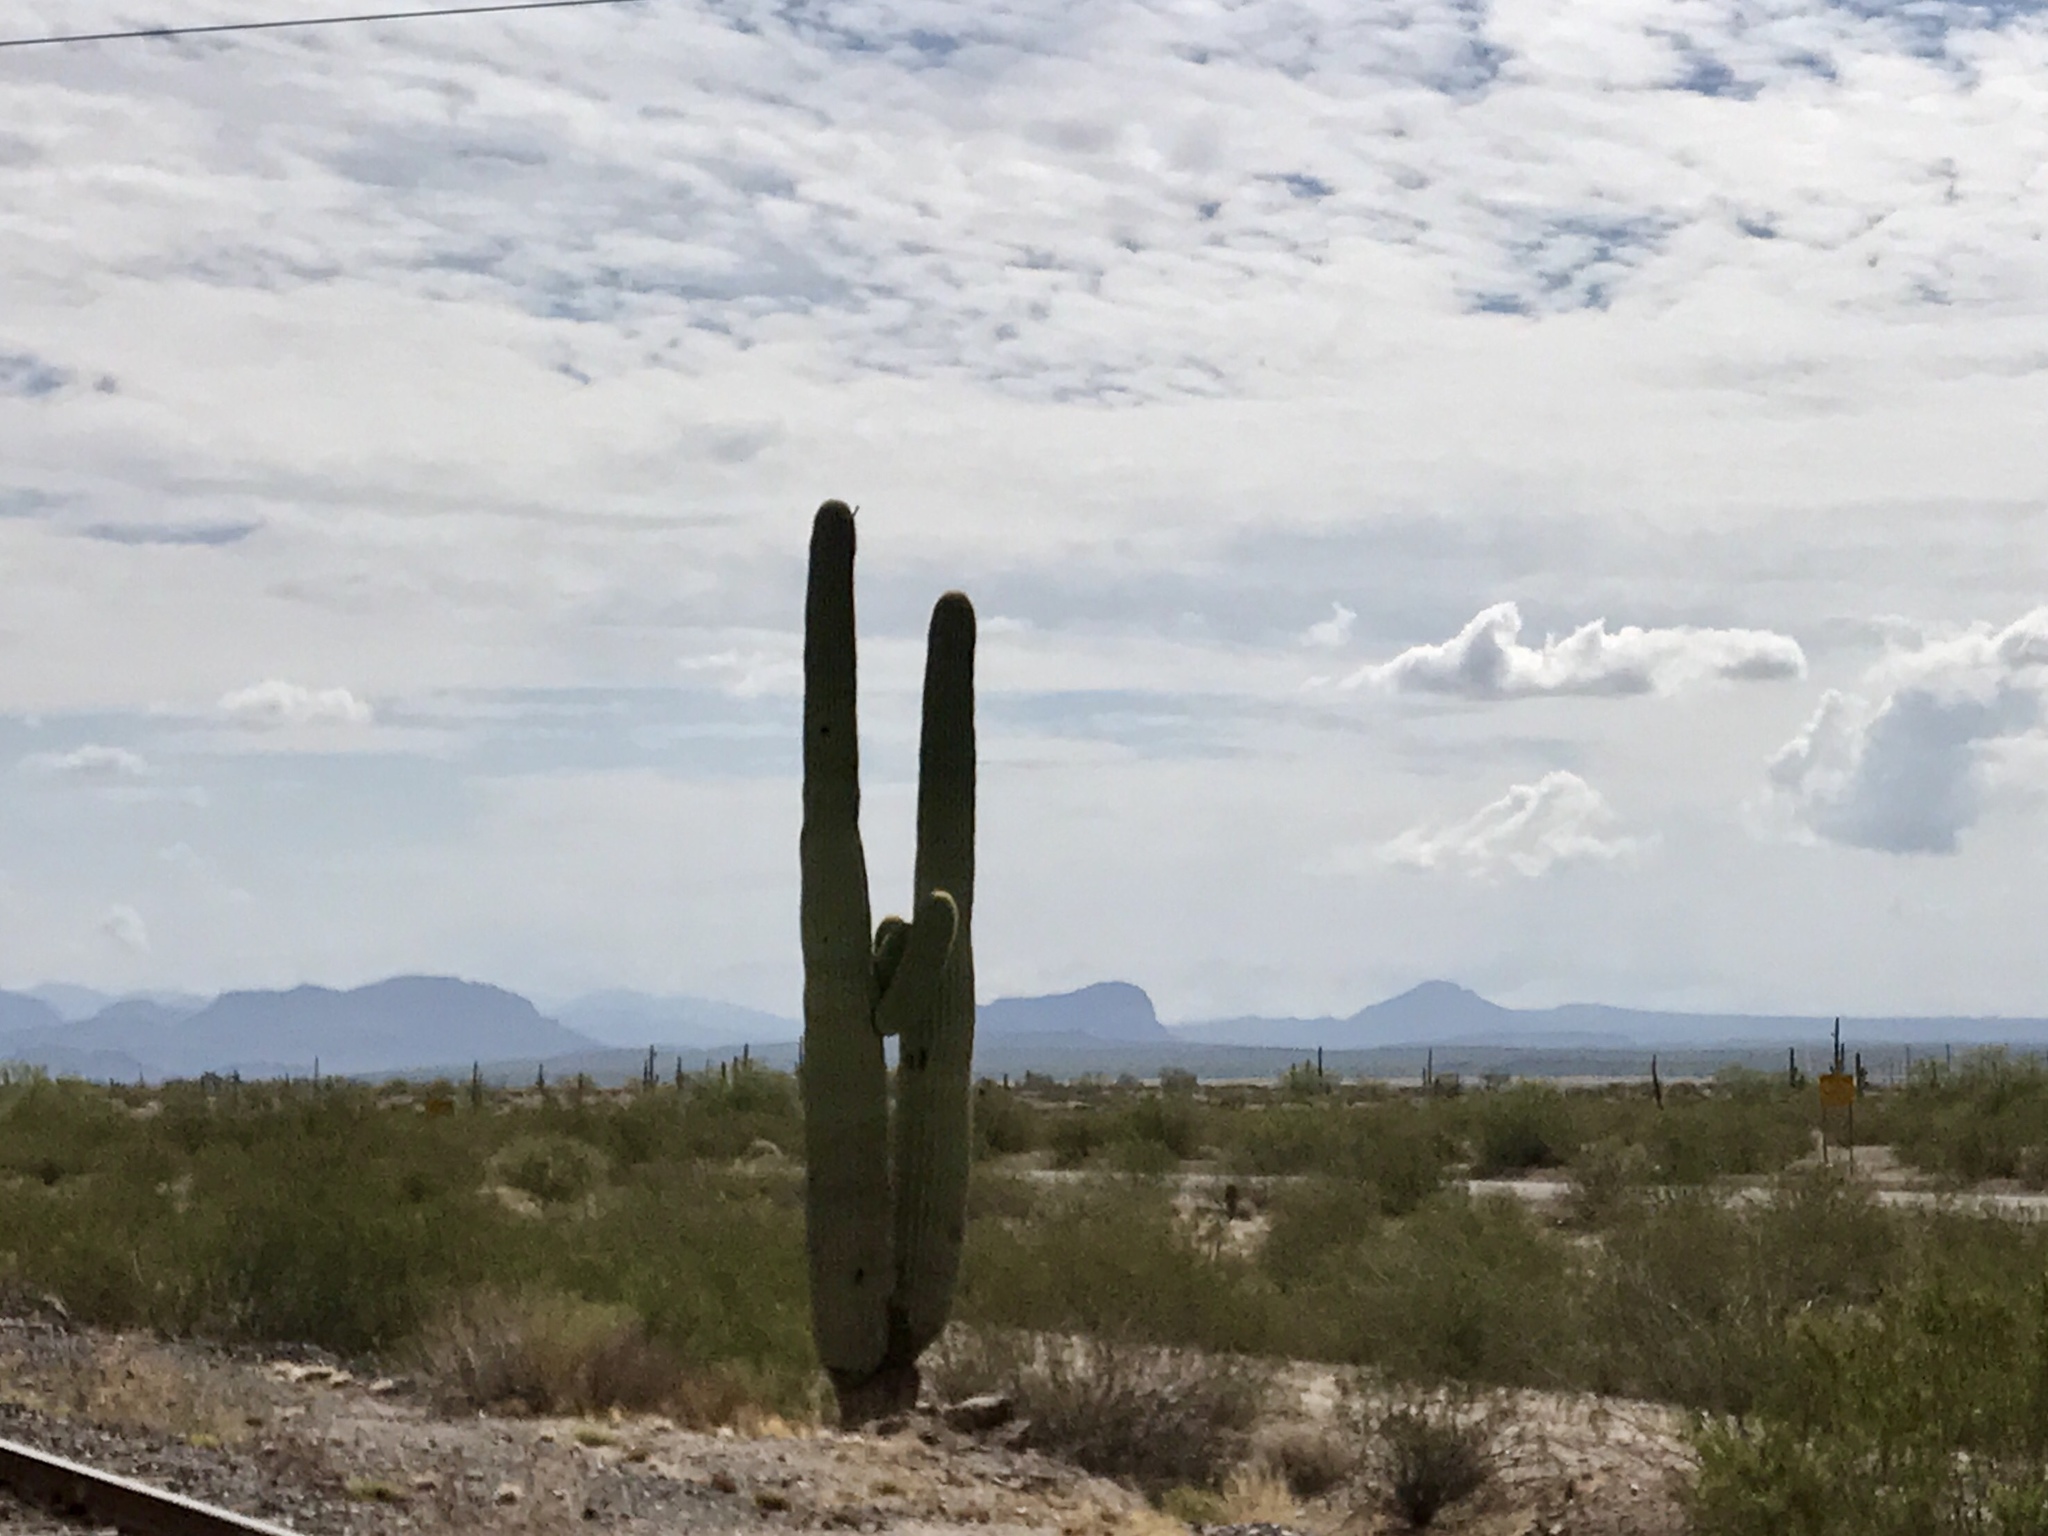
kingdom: Plantae
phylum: Tracheophyta
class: Magnoliopsida
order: Caryophyllales
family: Cactaceae
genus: Carnegiea
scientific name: Carnegiea gigantea
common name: Saguaro
